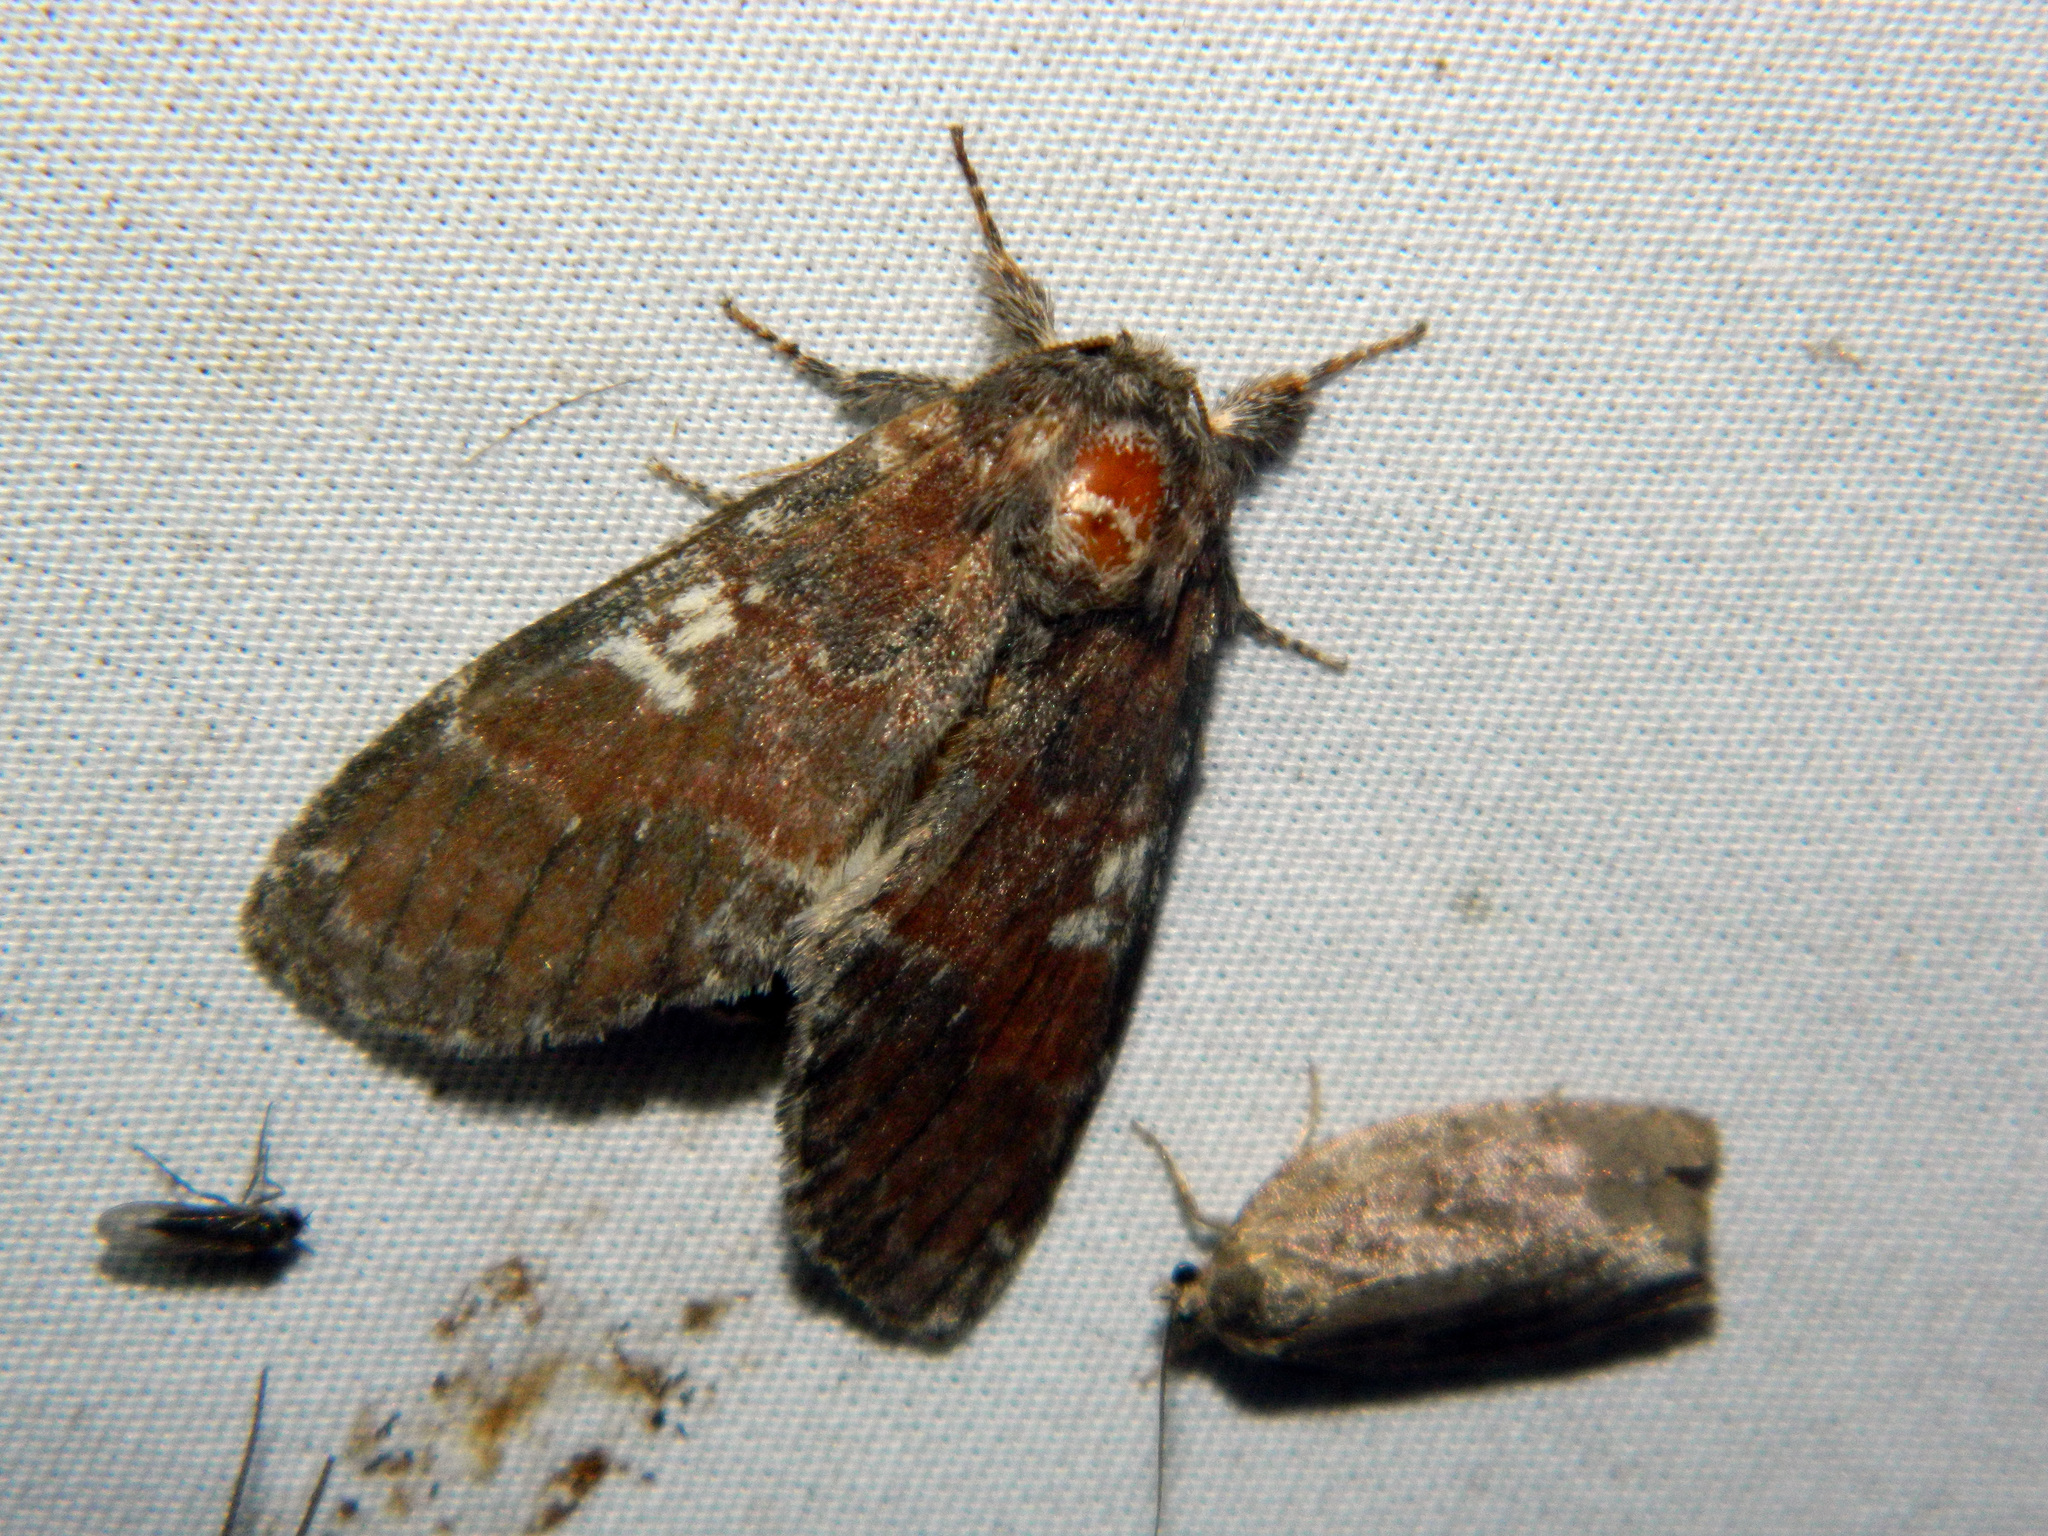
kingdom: Animalia
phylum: Arthropoda
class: Insecta
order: Lepidoptera
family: Notodontidae
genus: Peridea
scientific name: Peridea ferruginea
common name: Chocolate prominent
